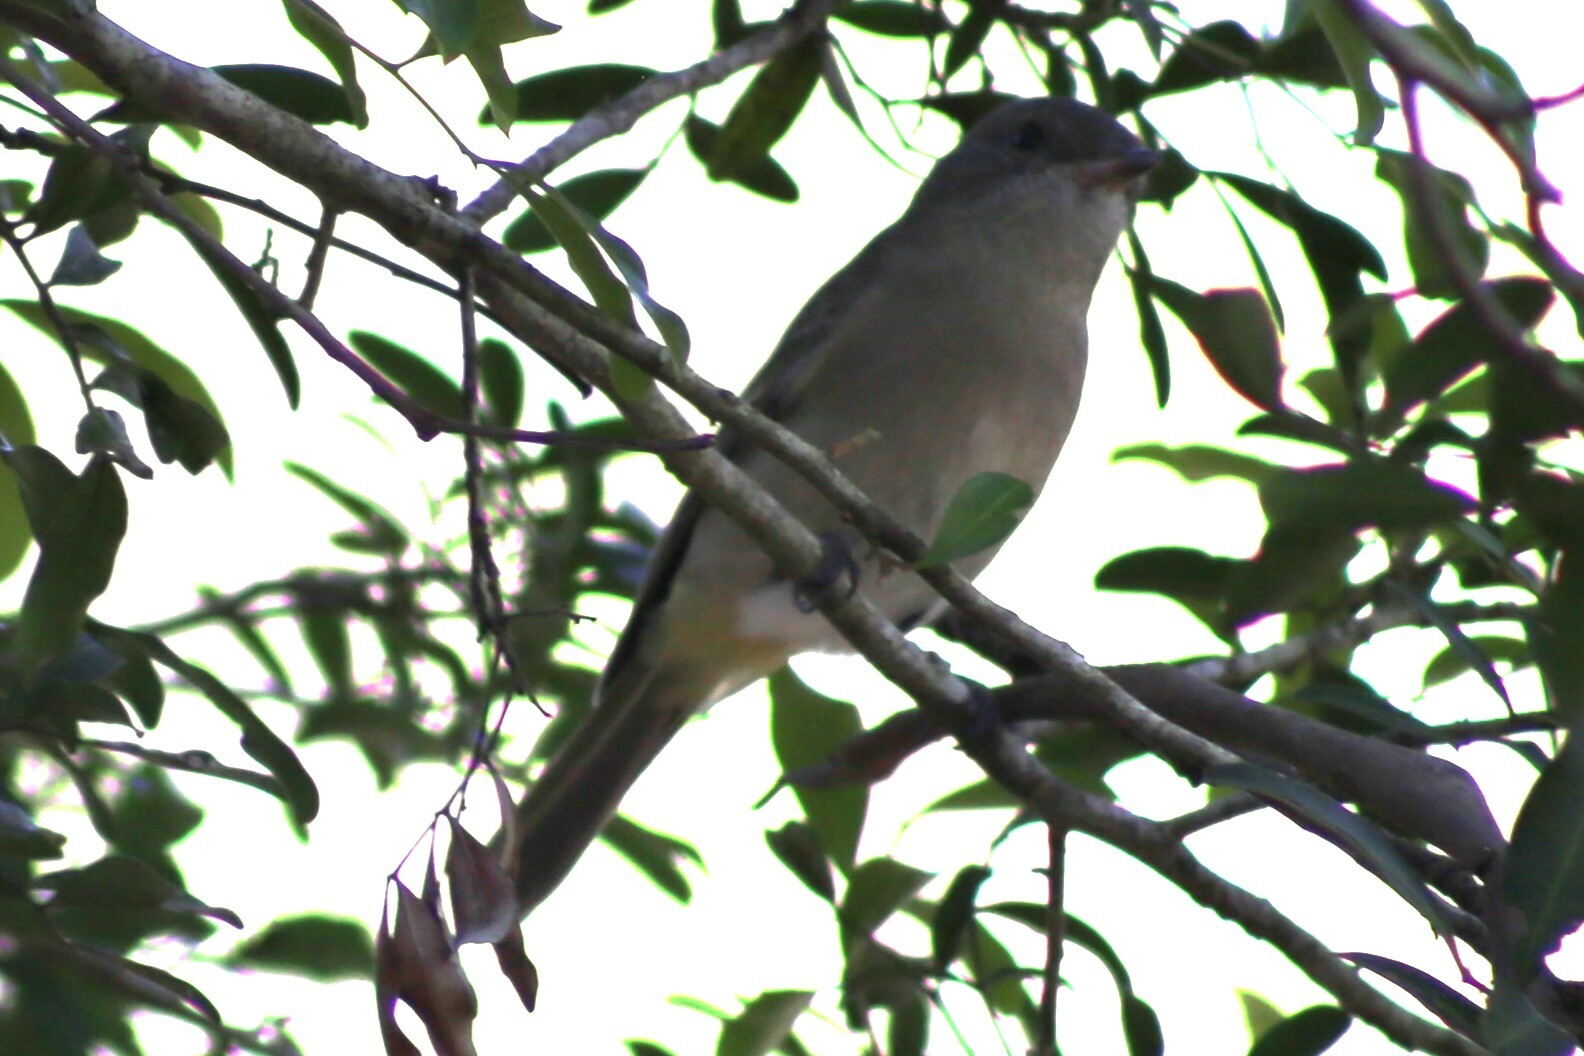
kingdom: Animalia
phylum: Chordata
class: Aves
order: Passeriformes
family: Pachycephalidae
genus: Pachycephala
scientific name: Pachycephala pectoralis
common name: Australian golden whistler
